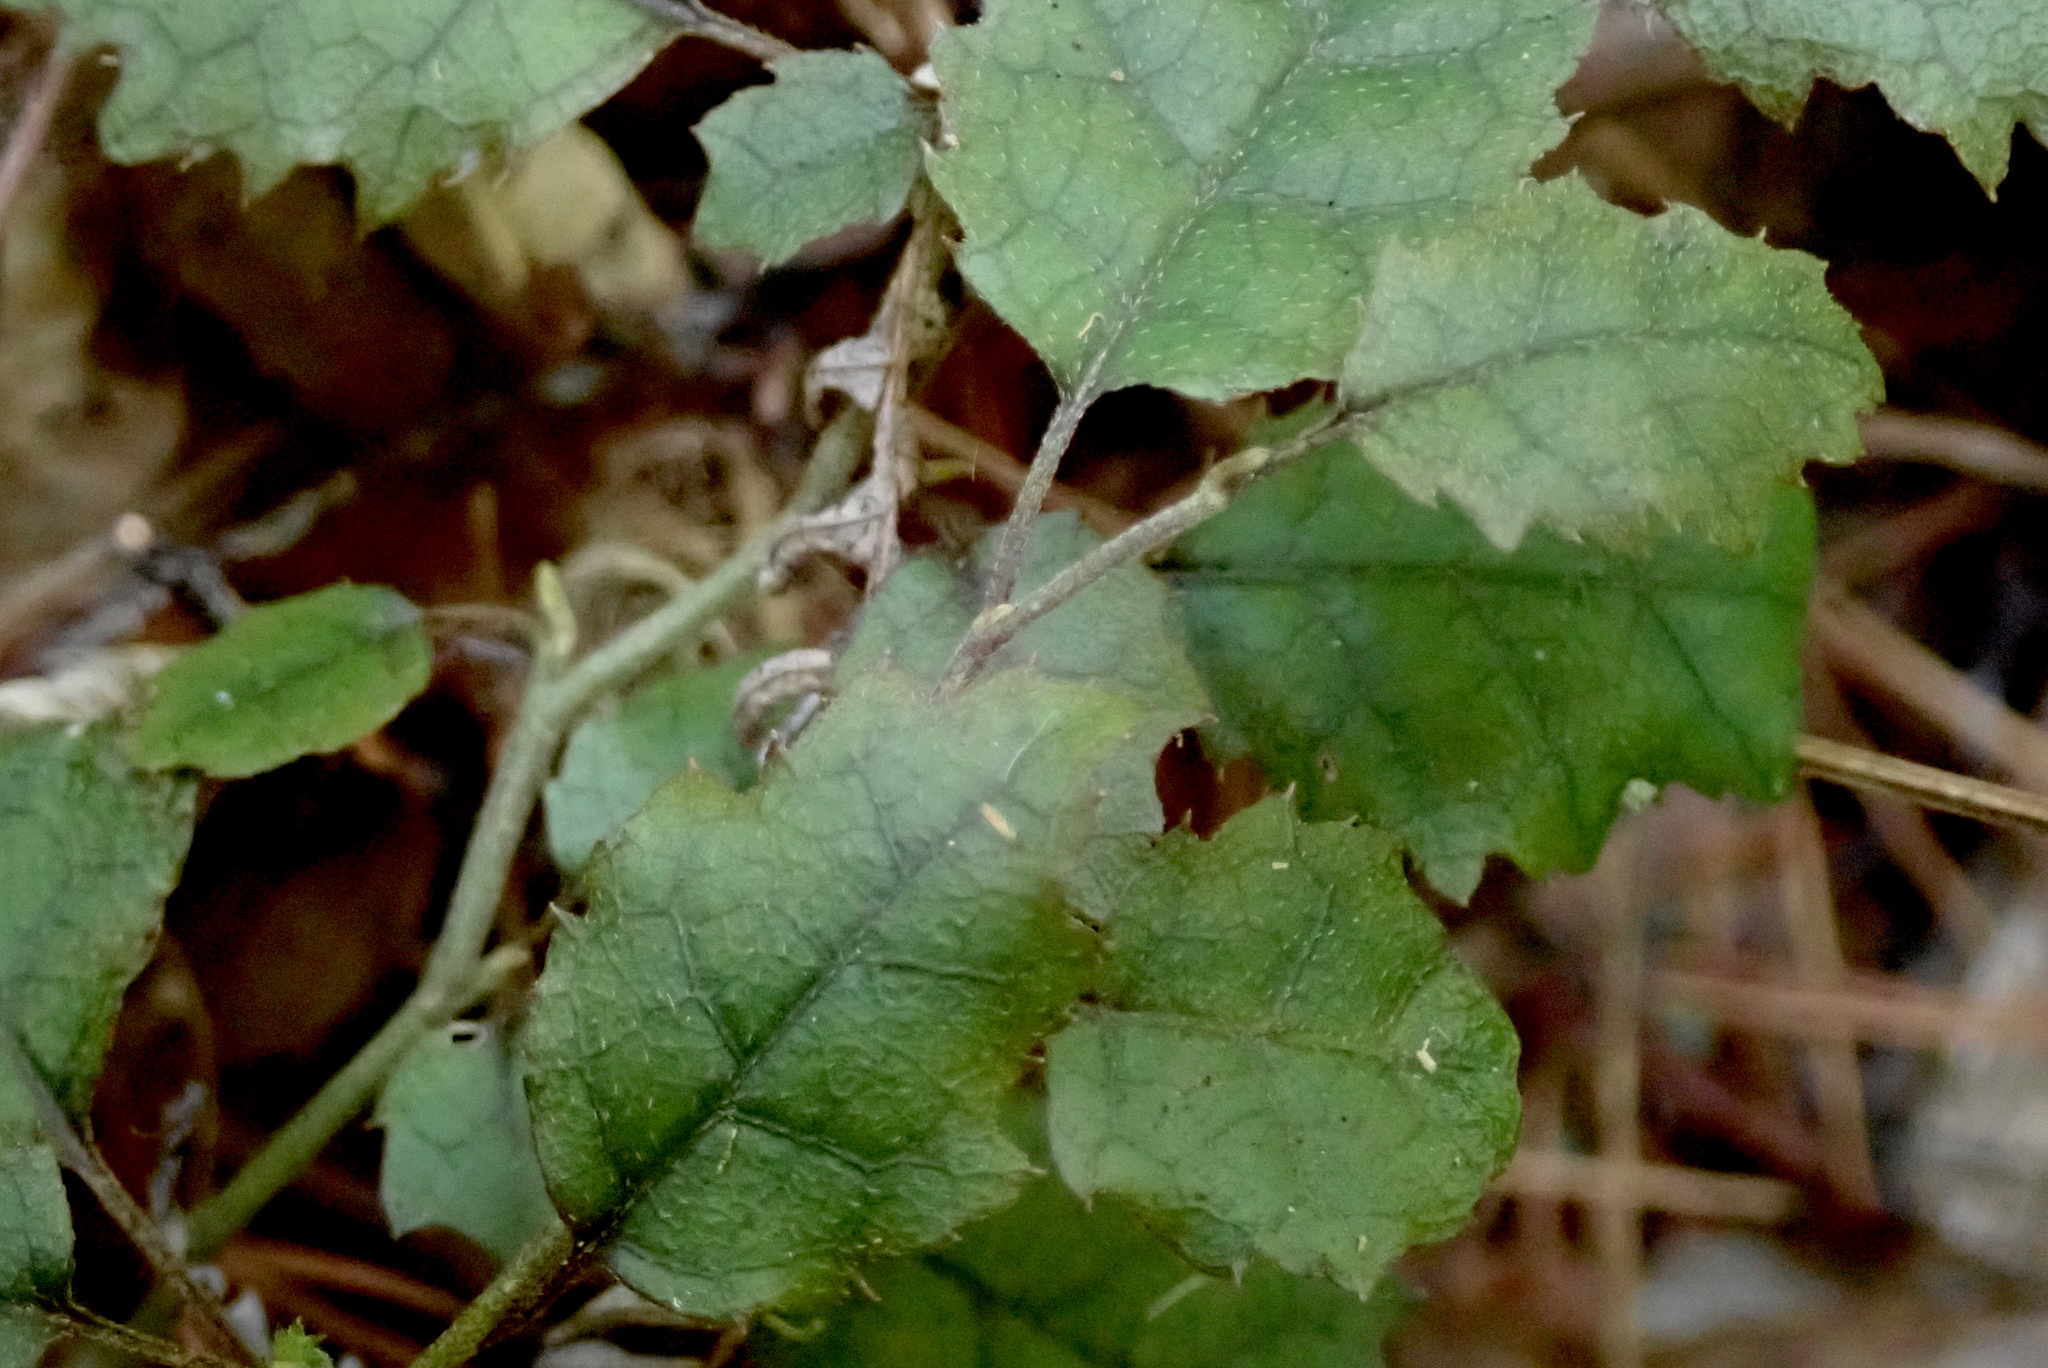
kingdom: Plantae
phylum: Tracheophyta
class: Magnoliopsida
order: Asterales
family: Rousseaceae
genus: Carpodetus
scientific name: Carpodetus serratus
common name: White mapau
